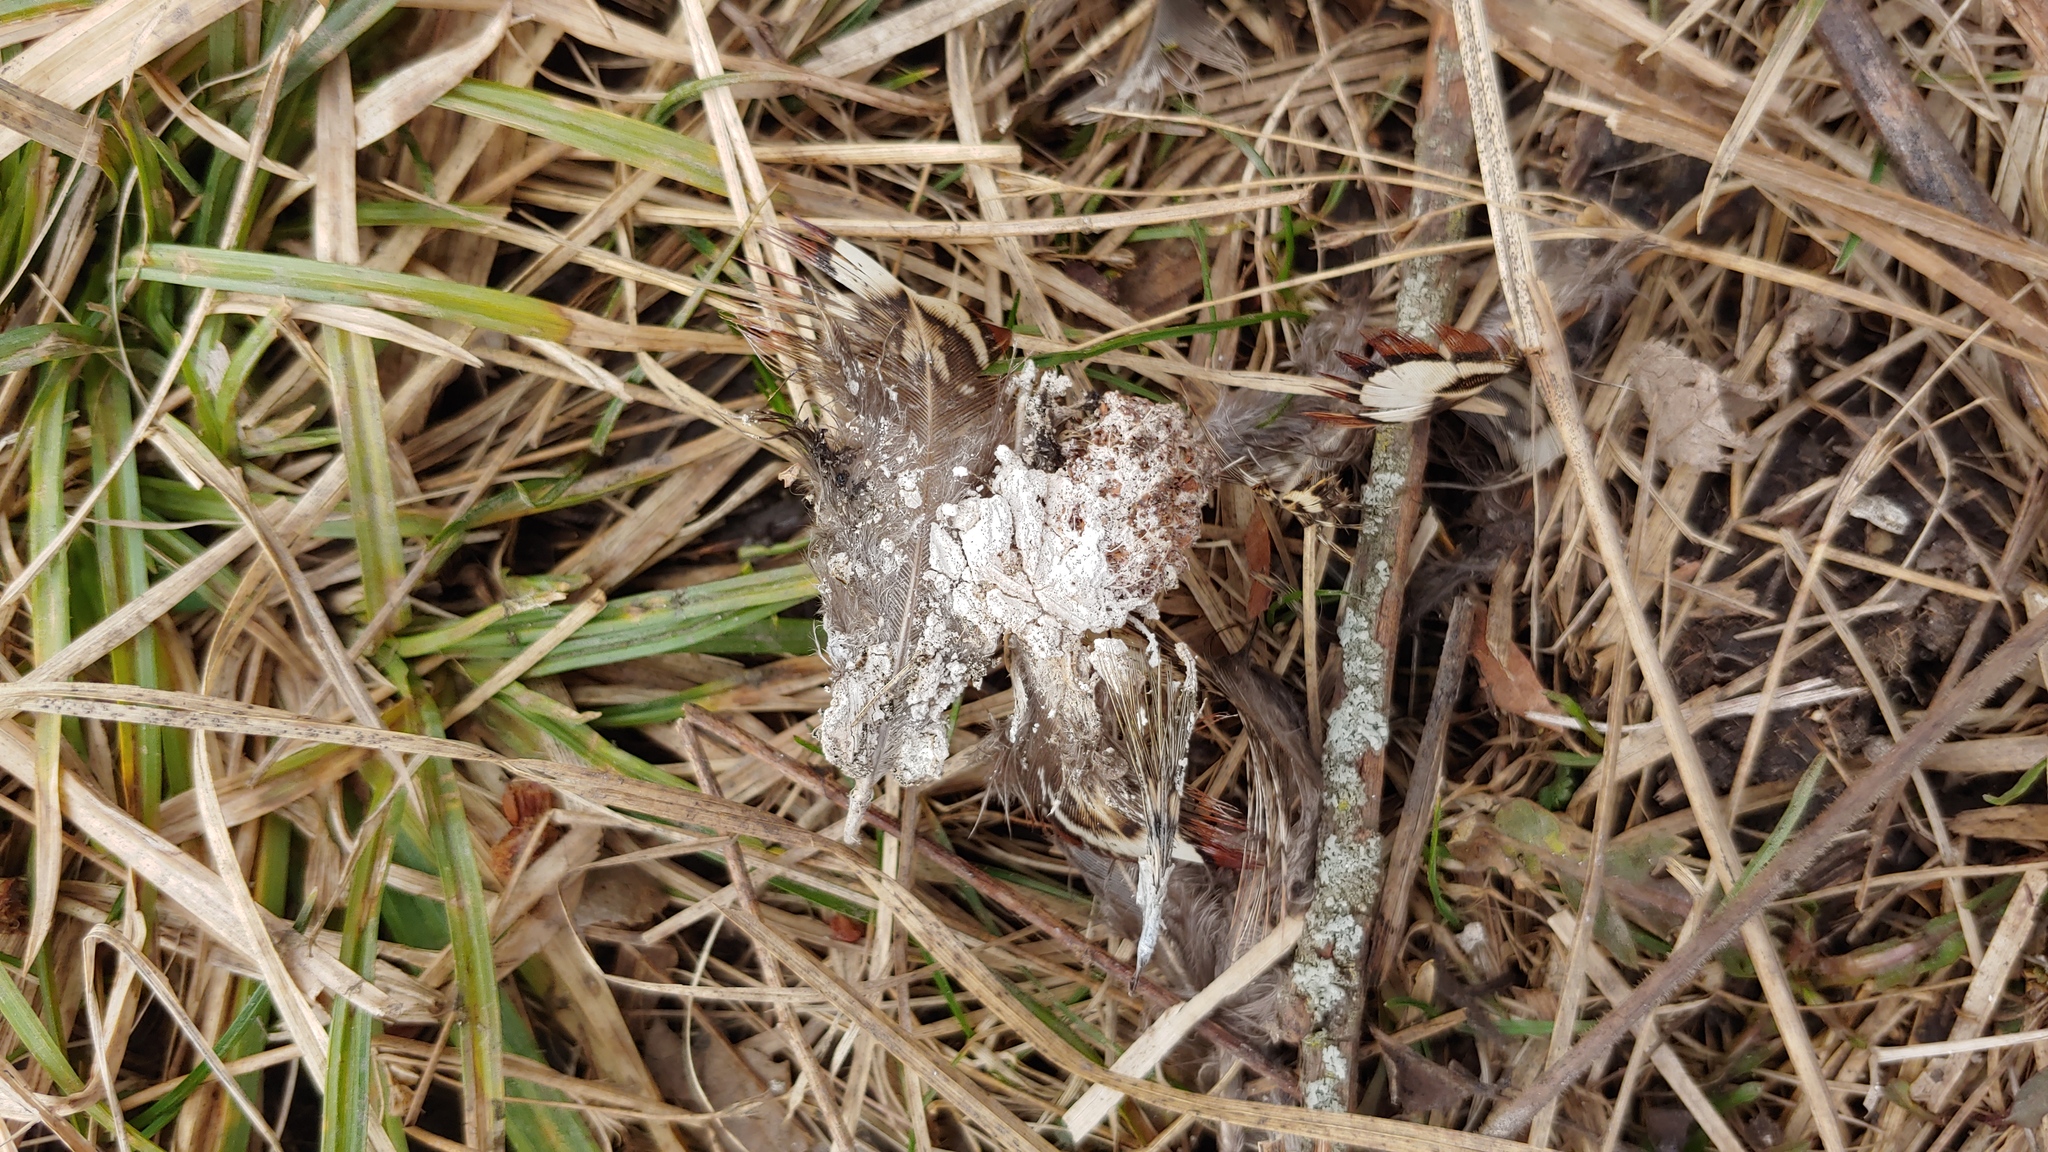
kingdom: Animalia
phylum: Chordata
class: Aves
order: Galliformes
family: Phasianidae
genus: Phasianus
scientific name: Phasianus colchicus
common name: Common pheasant
